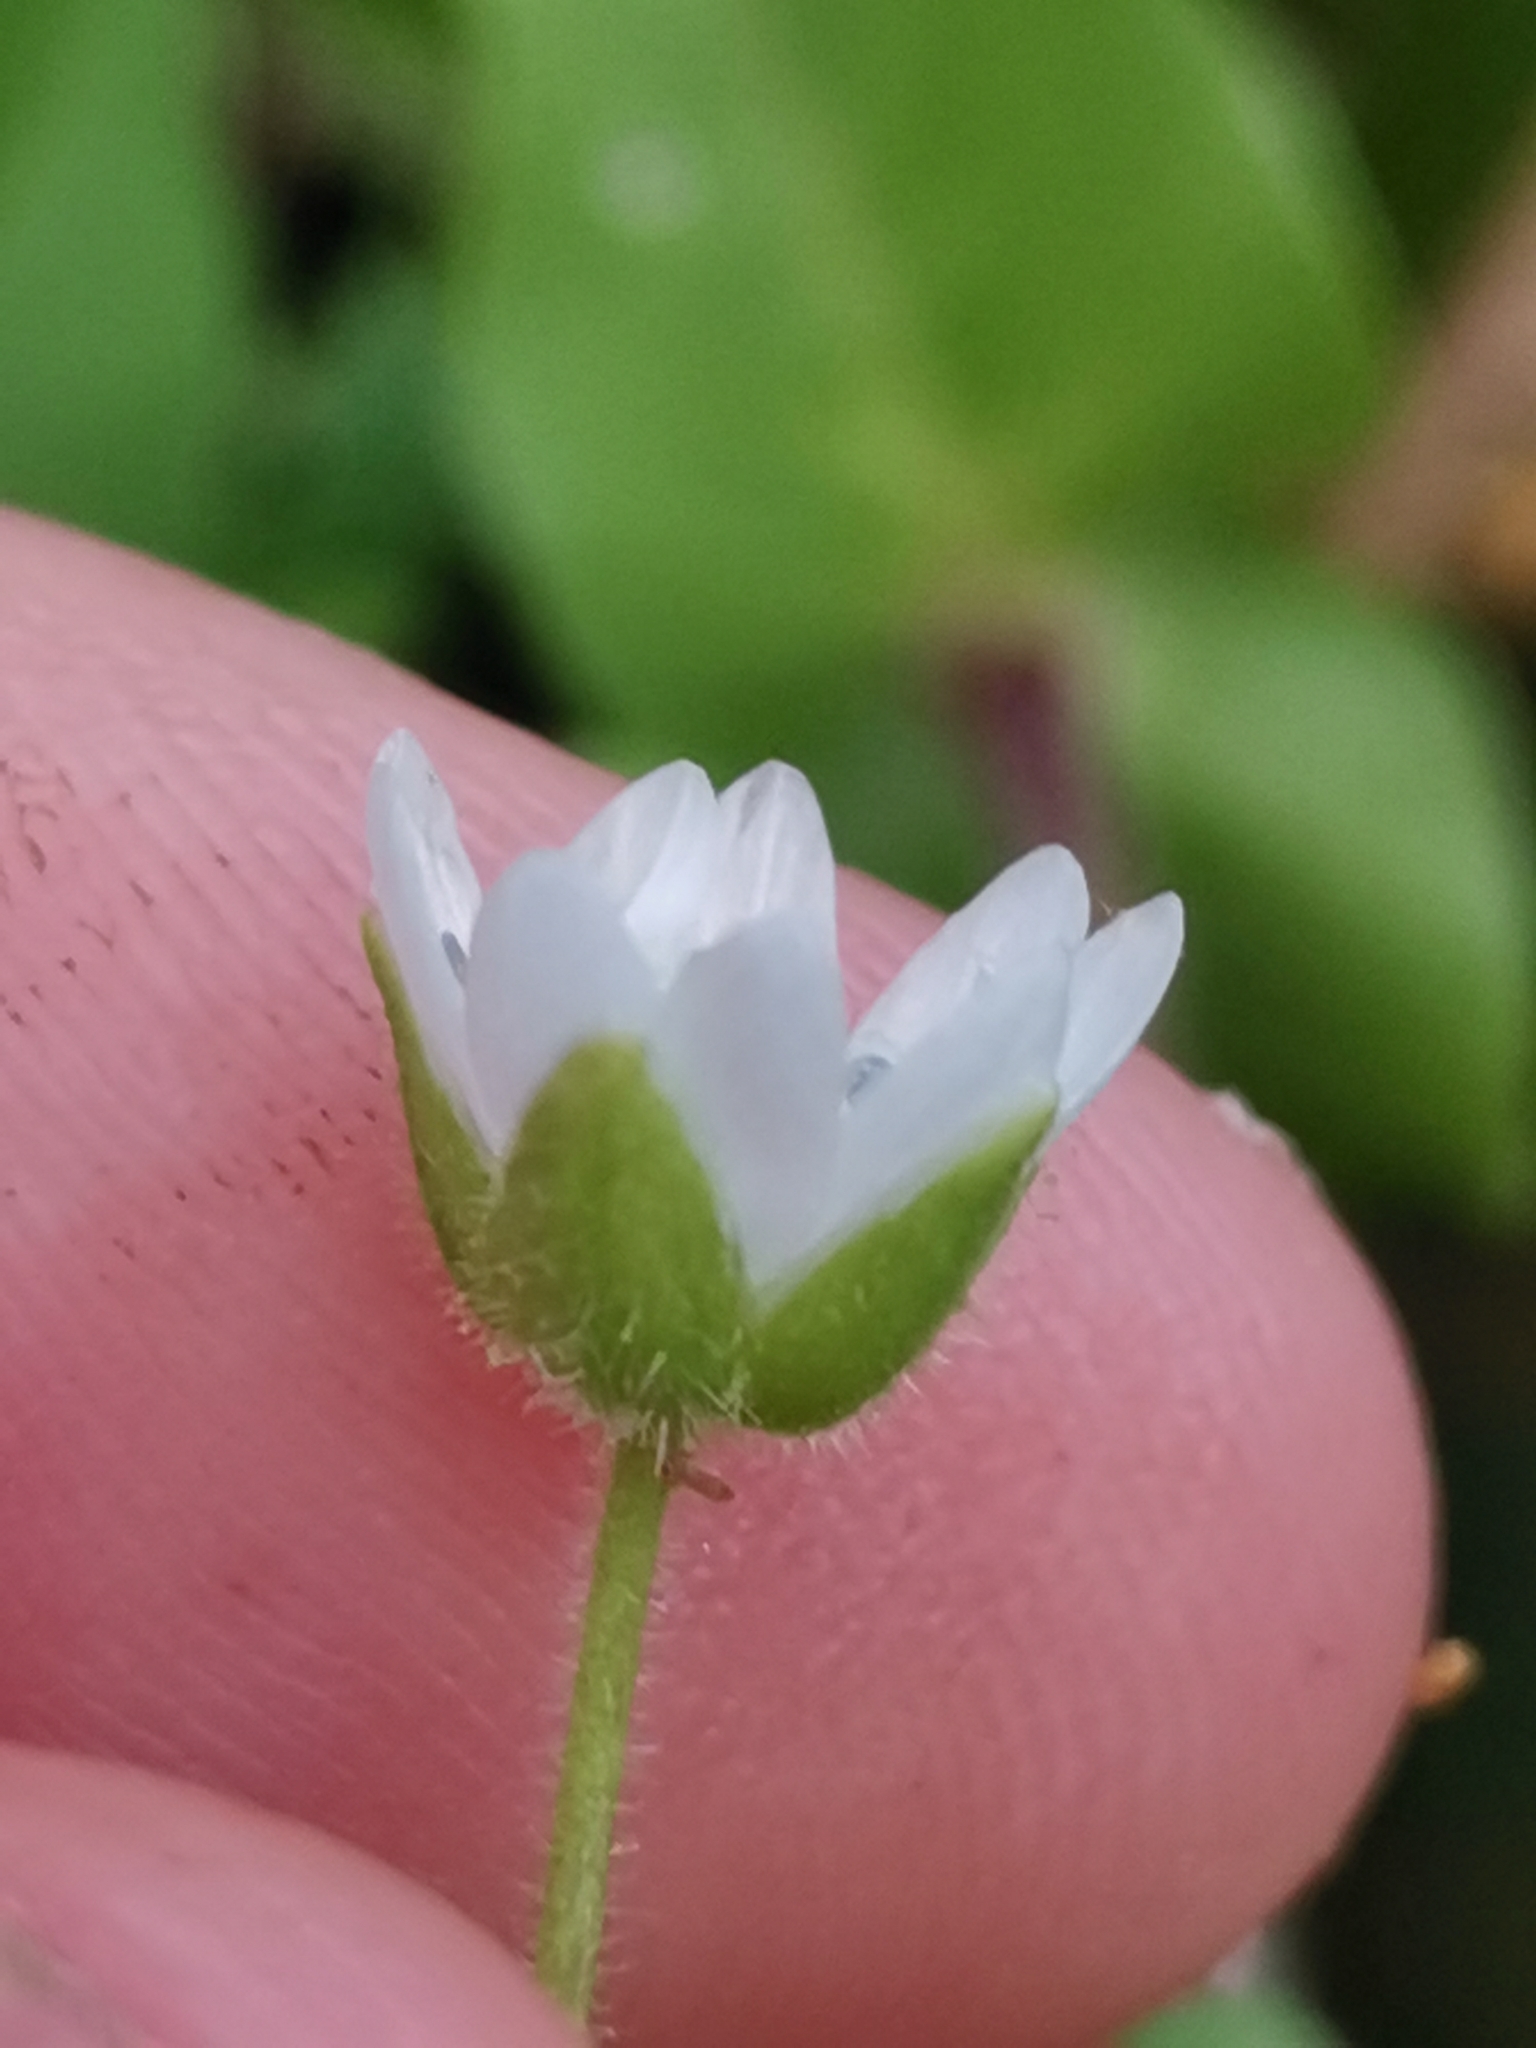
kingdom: Plantae
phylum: Tracheophyta
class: Magnoliopsida
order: Caryophyllales
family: Caryophyllaceae
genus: Stellaria
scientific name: Stellaria aquatica
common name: Water chickweed
